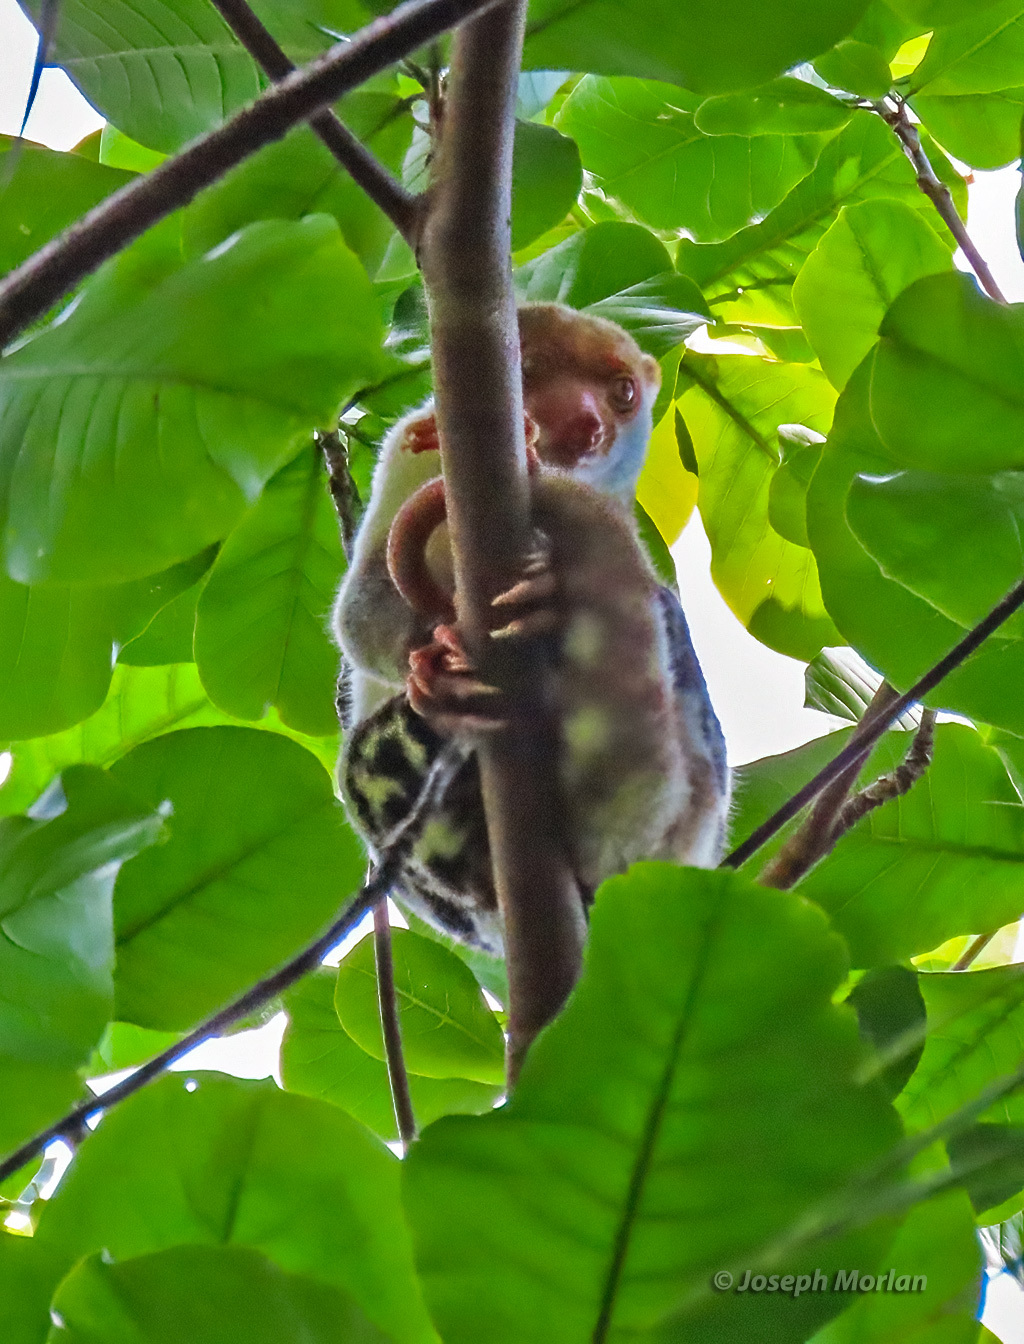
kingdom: Animalia
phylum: Chordata
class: Mammalia
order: Diprotodontia
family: Phalangeridae
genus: Spilocuscus
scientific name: Spilocuscus papuensis
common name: Waigeou cuscus
